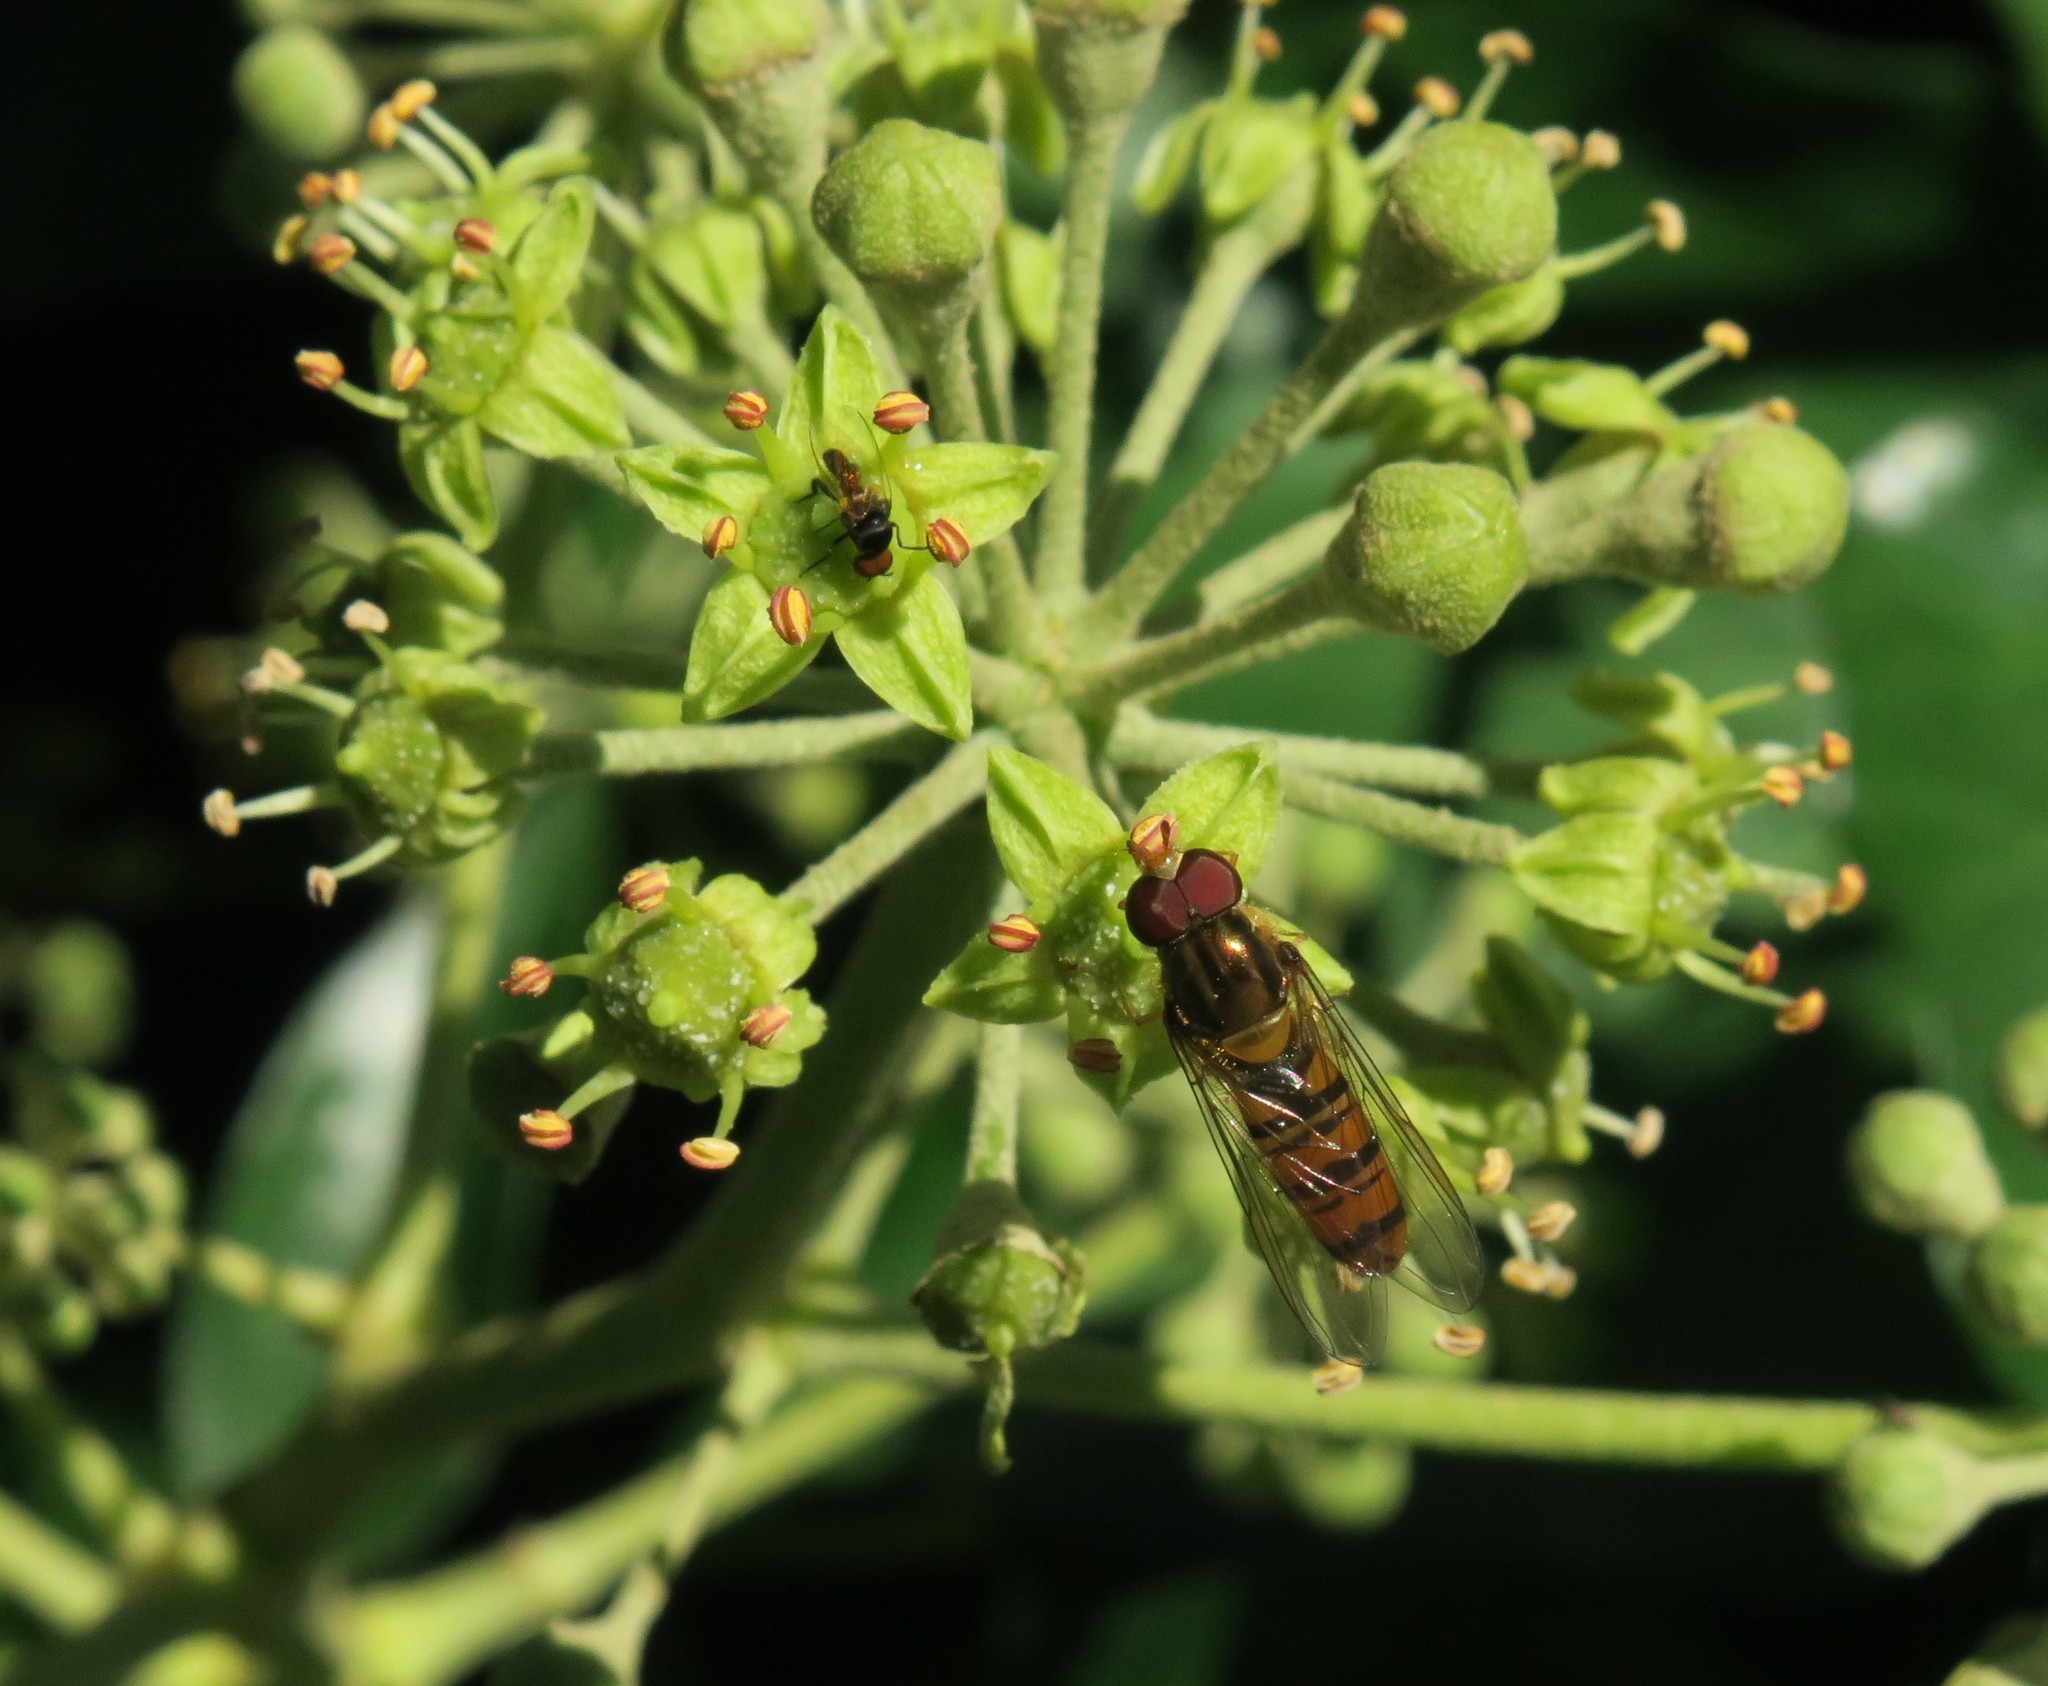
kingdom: Animalia
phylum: Arthropoda
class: Insecta
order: Diptera
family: Syrphidae
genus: Episyrphus
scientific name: Episyrphus balteatus
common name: Marmalade hoverfly
